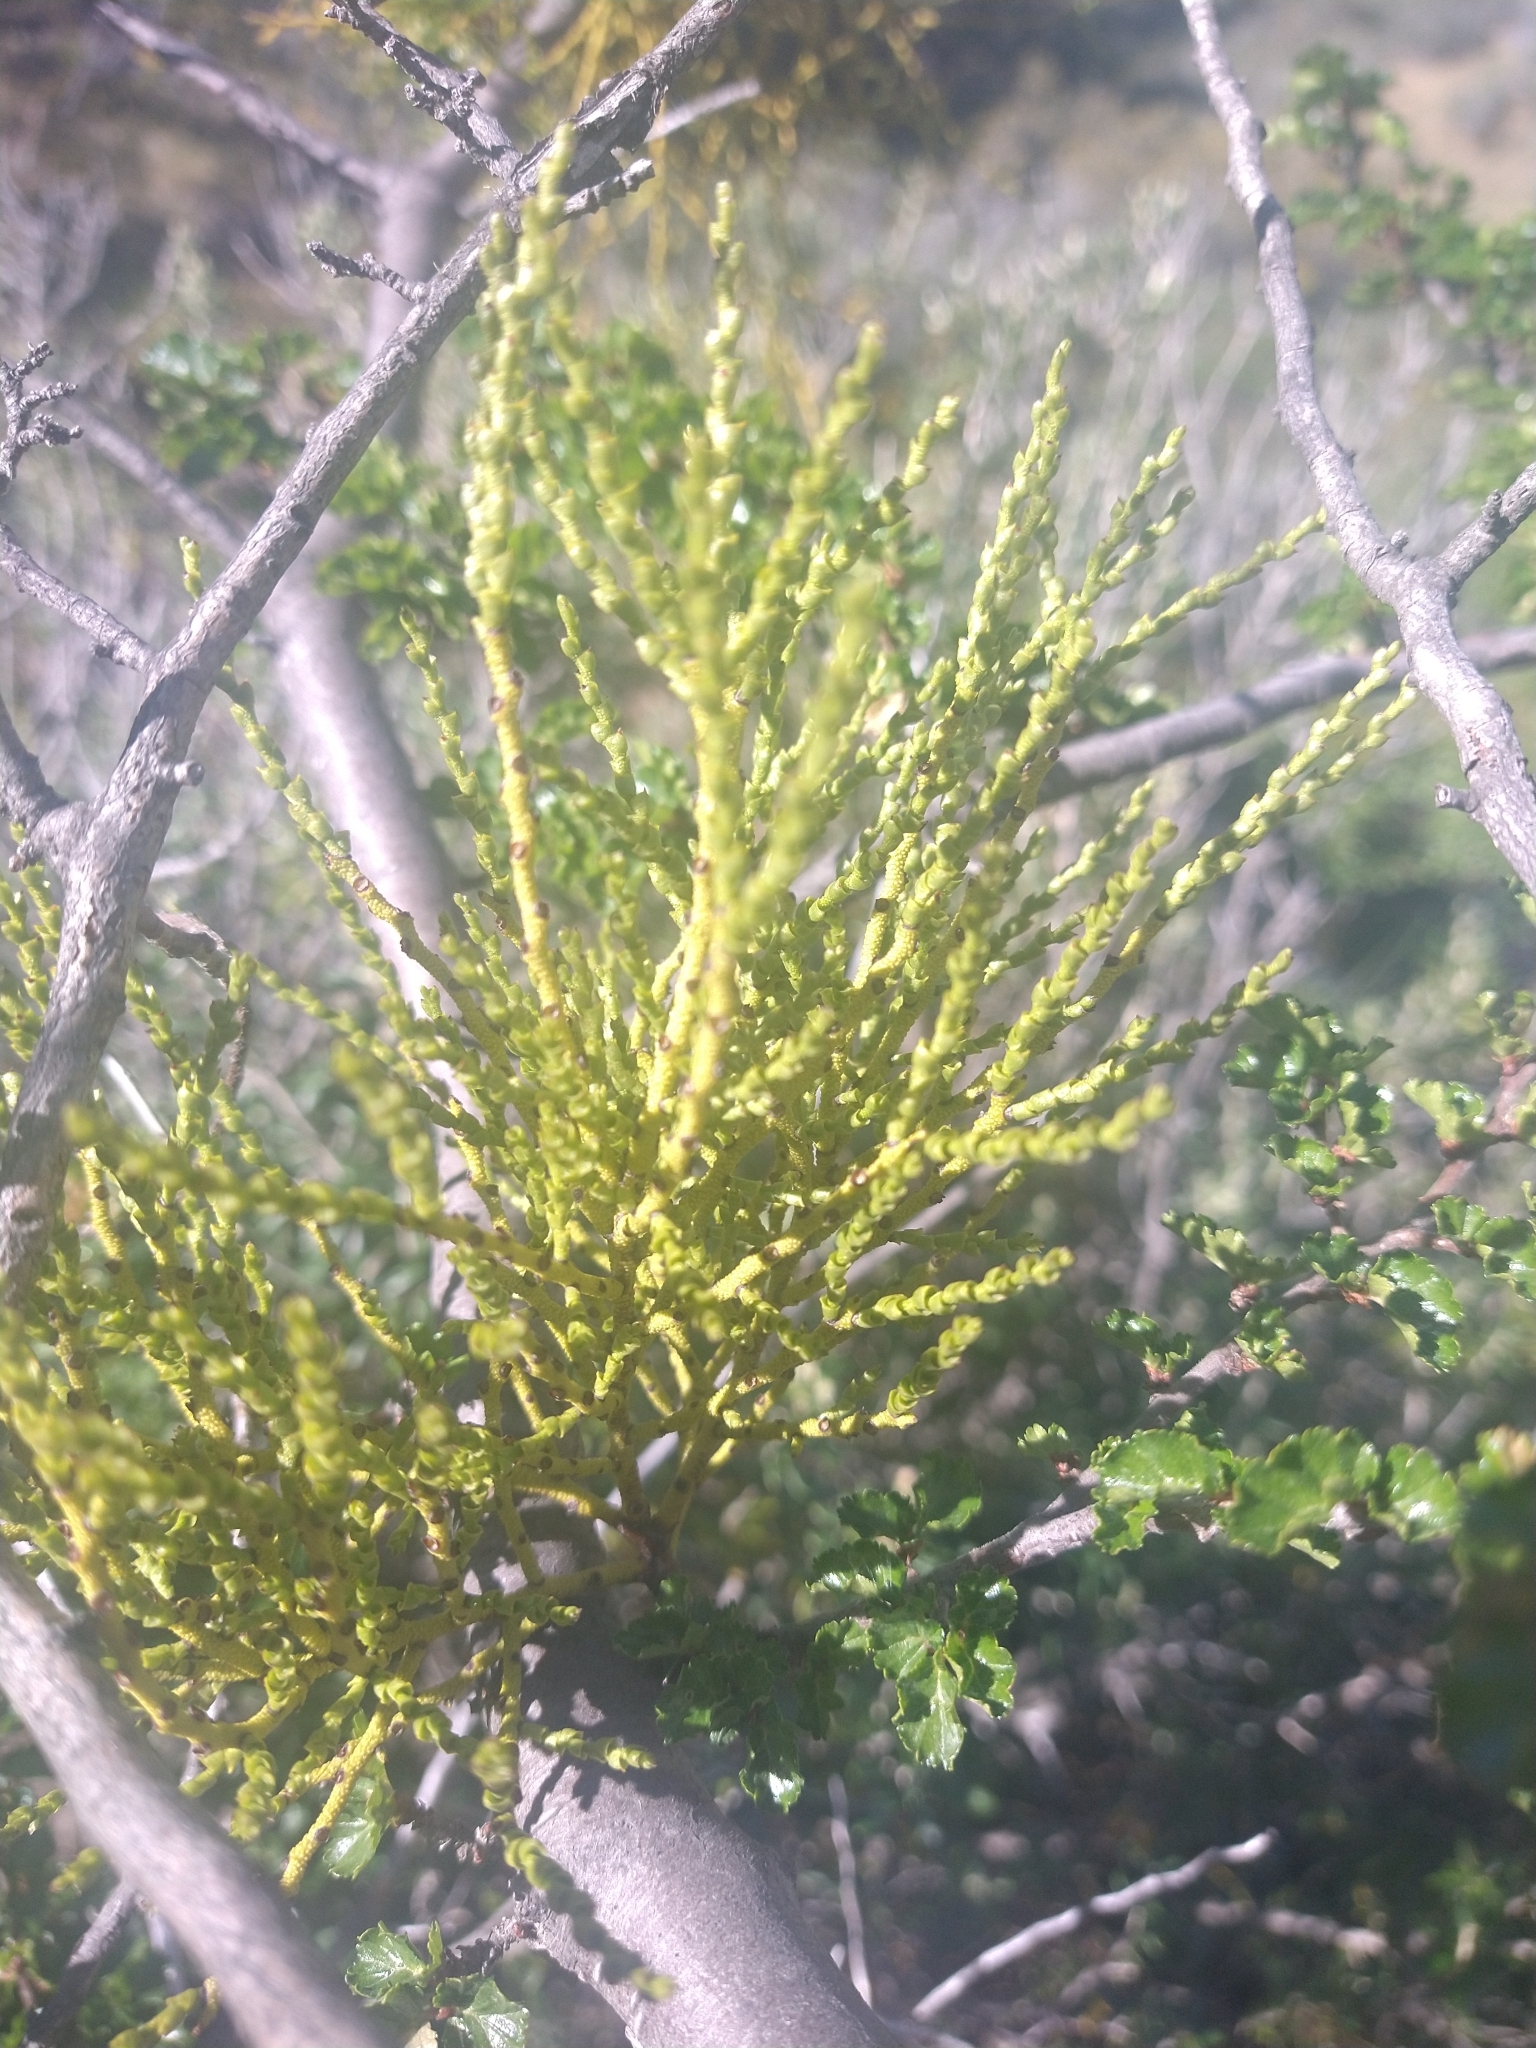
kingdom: Plantae
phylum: Tracheophyta
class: Magnoliopsida
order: Santalales
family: Misodendraceae
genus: Misodendrum
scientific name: Misodendrum punctulatum
